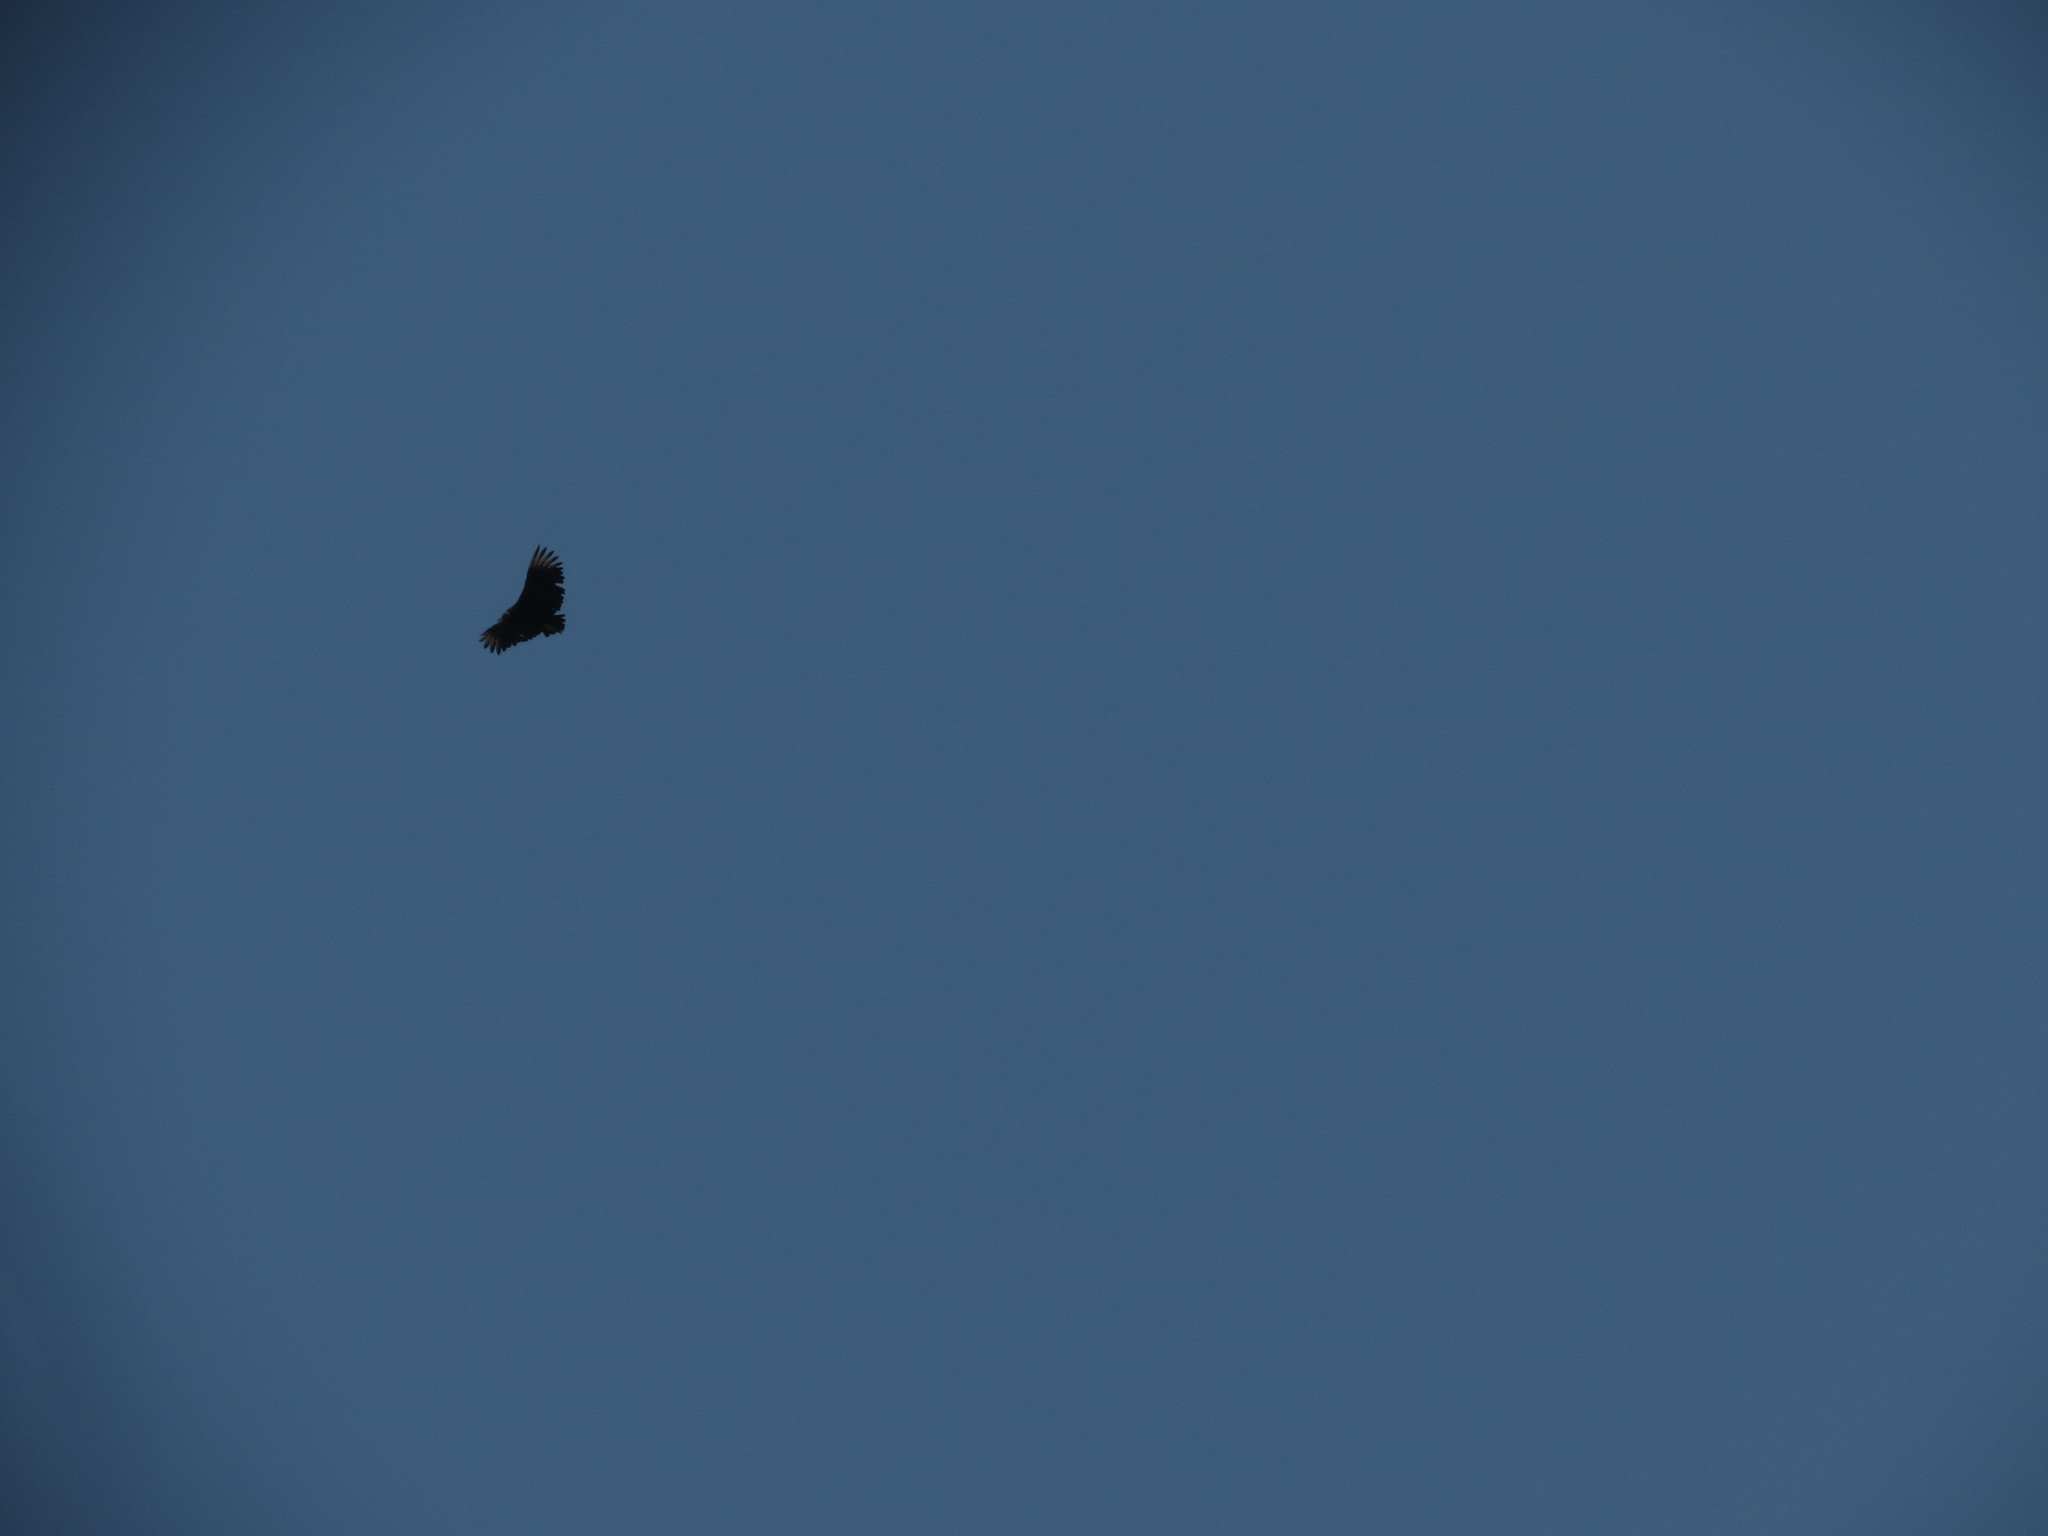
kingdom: Animalia
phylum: Chordata
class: Aves
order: Accipitriformes
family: Cathartidae
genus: Coragyps
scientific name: Coragyps atratus
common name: Black vulture
